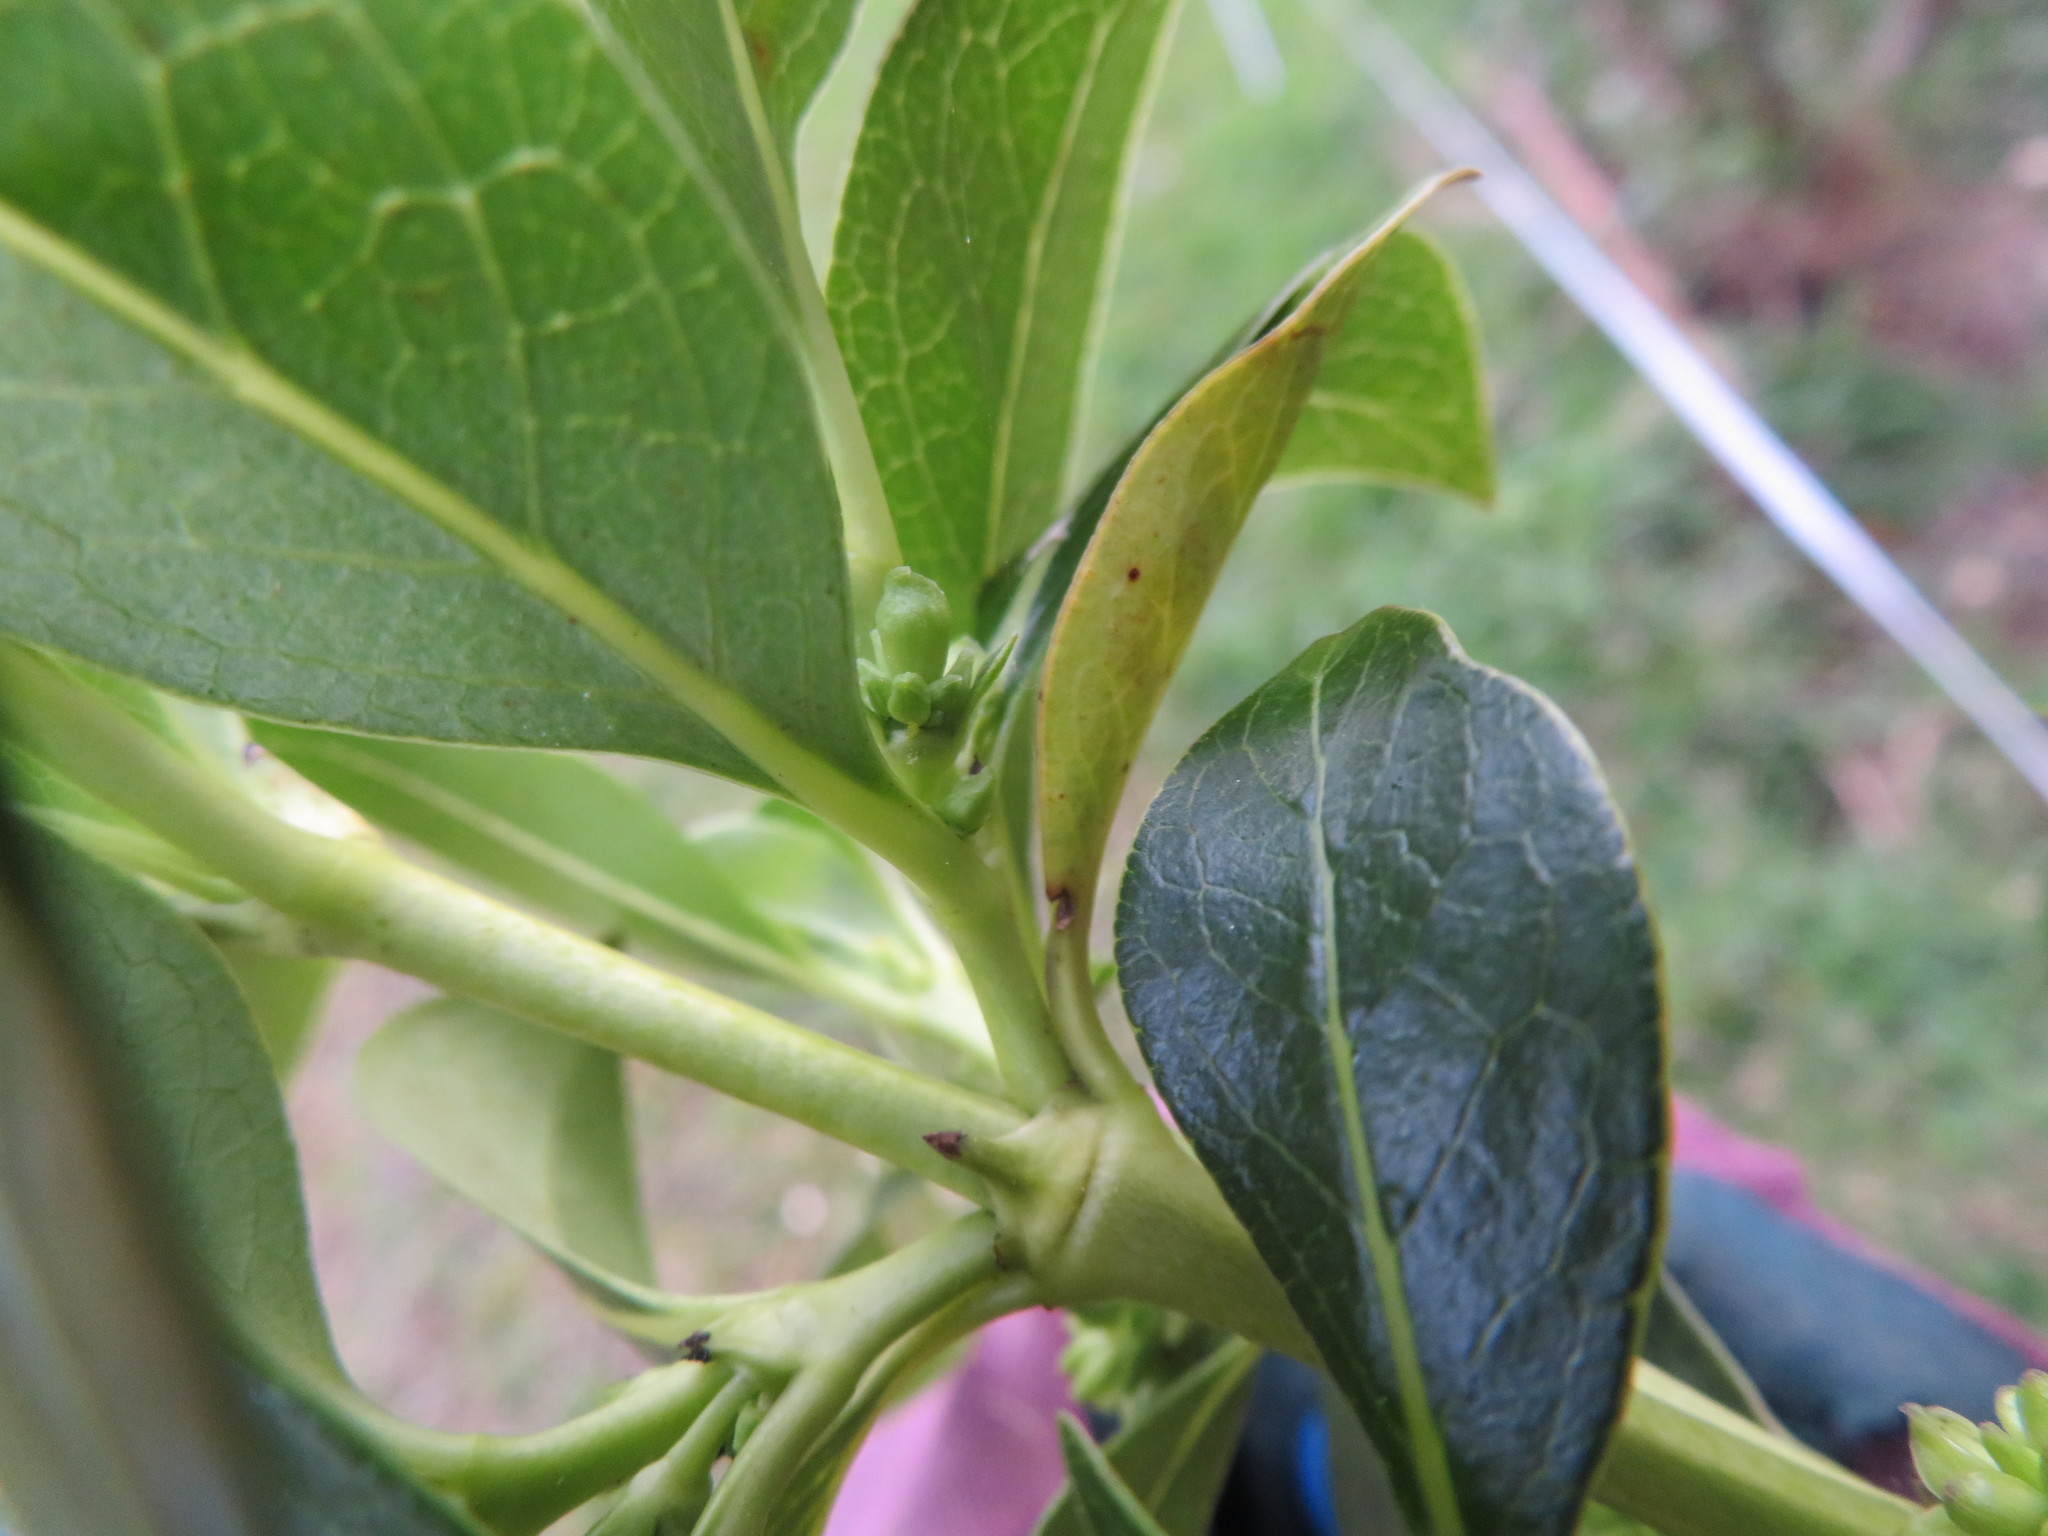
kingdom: Plantae
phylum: Tracheophyta
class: Magnoliopsida
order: Gentianales
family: Rubiaceae
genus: Coprosma
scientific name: Coprosma robusta
